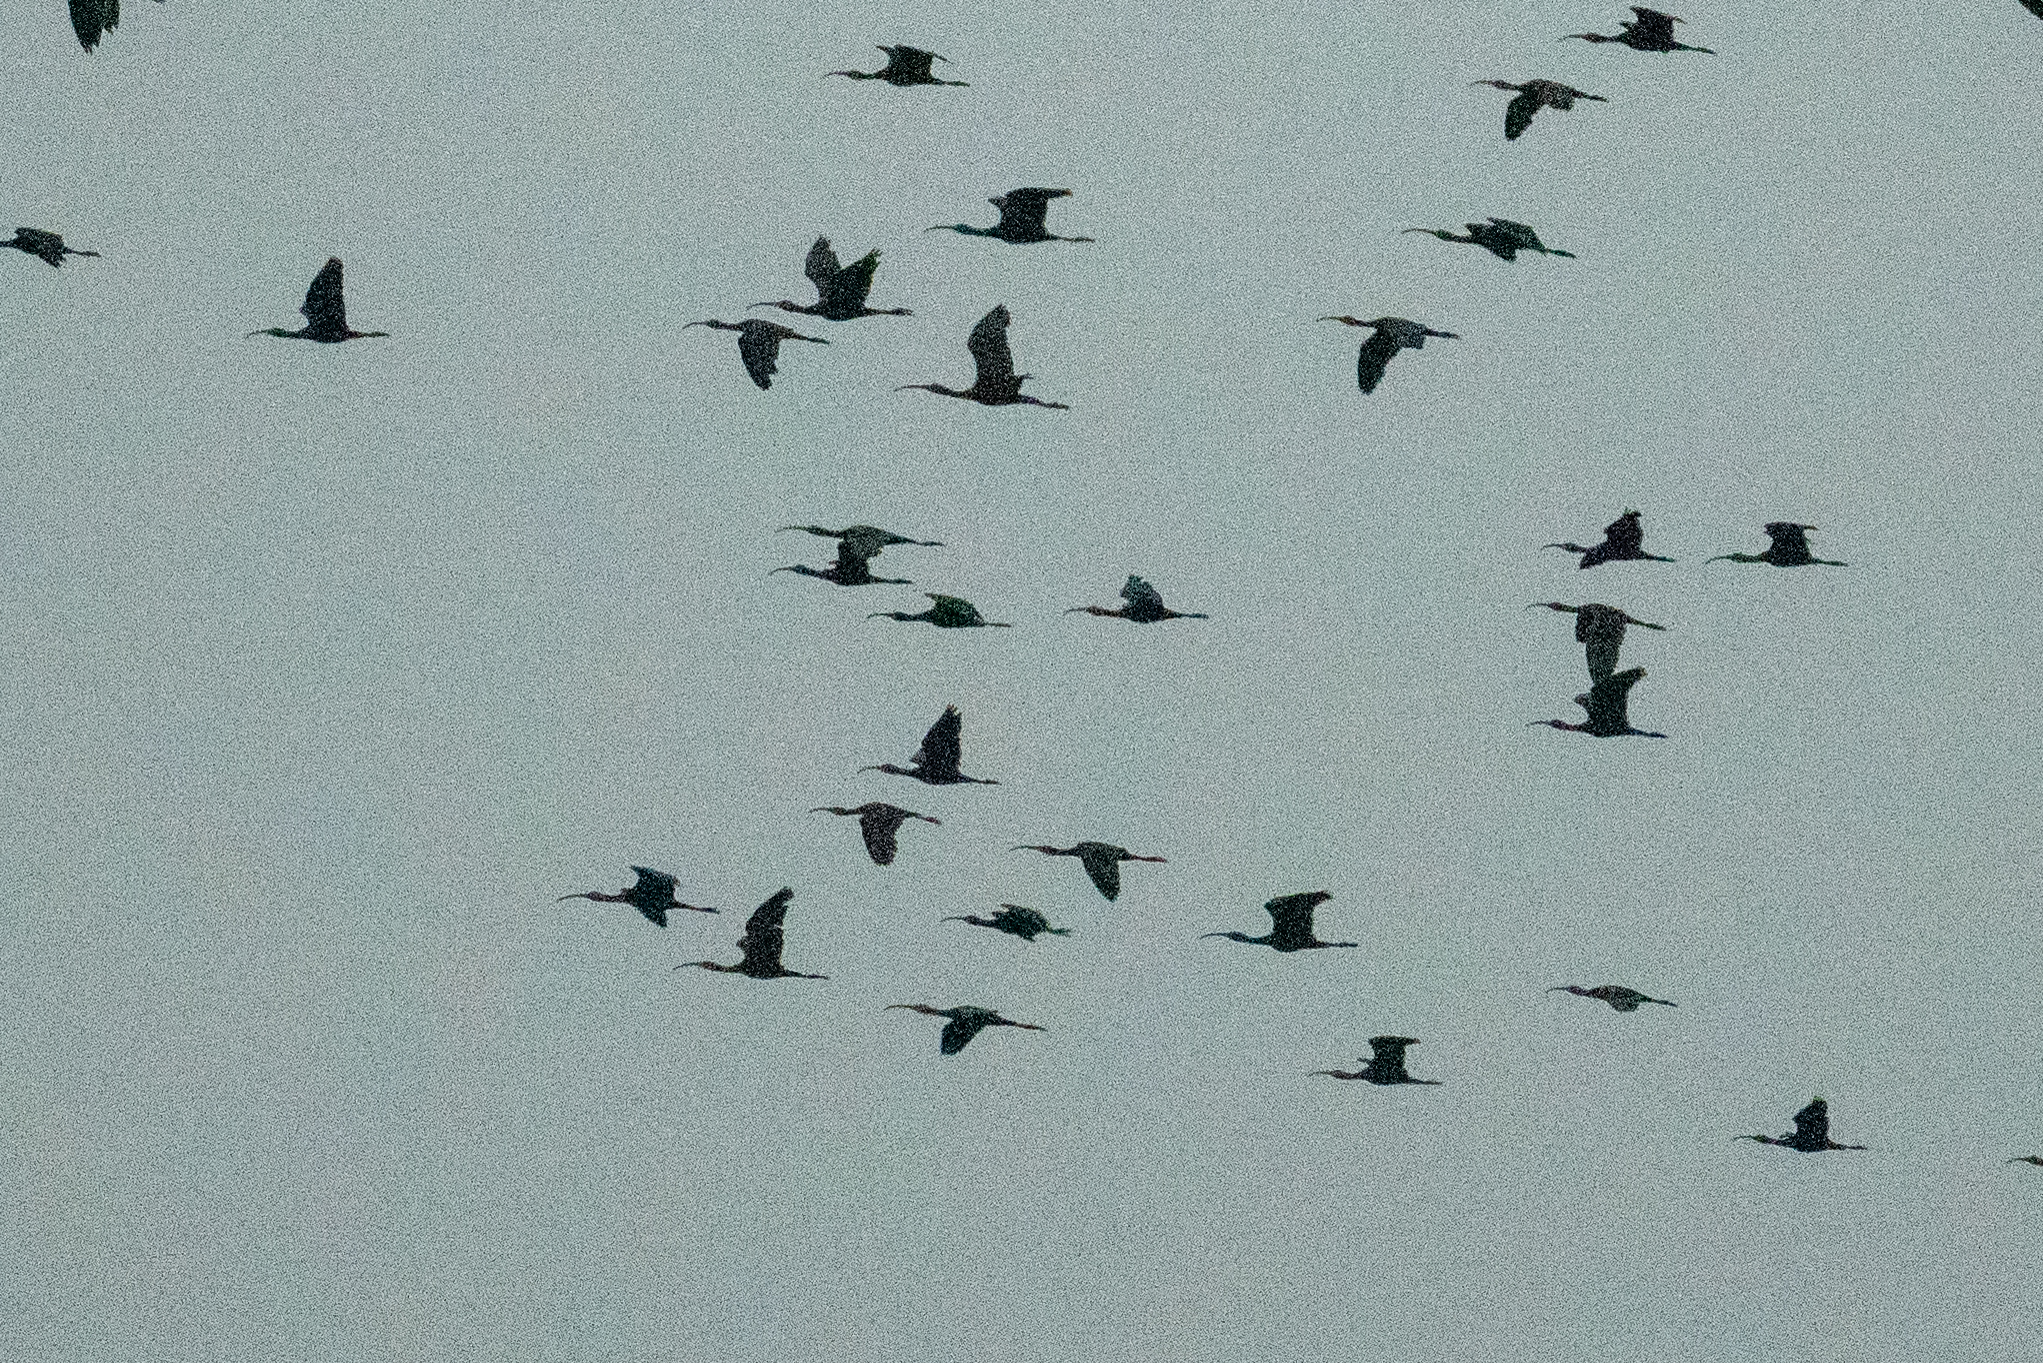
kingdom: Animalia
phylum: Chordata
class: Aves
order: Pelecaniformes
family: Threskiornithidae
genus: Plegadis
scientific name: Plegadis chihi
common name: White-faced ibis
